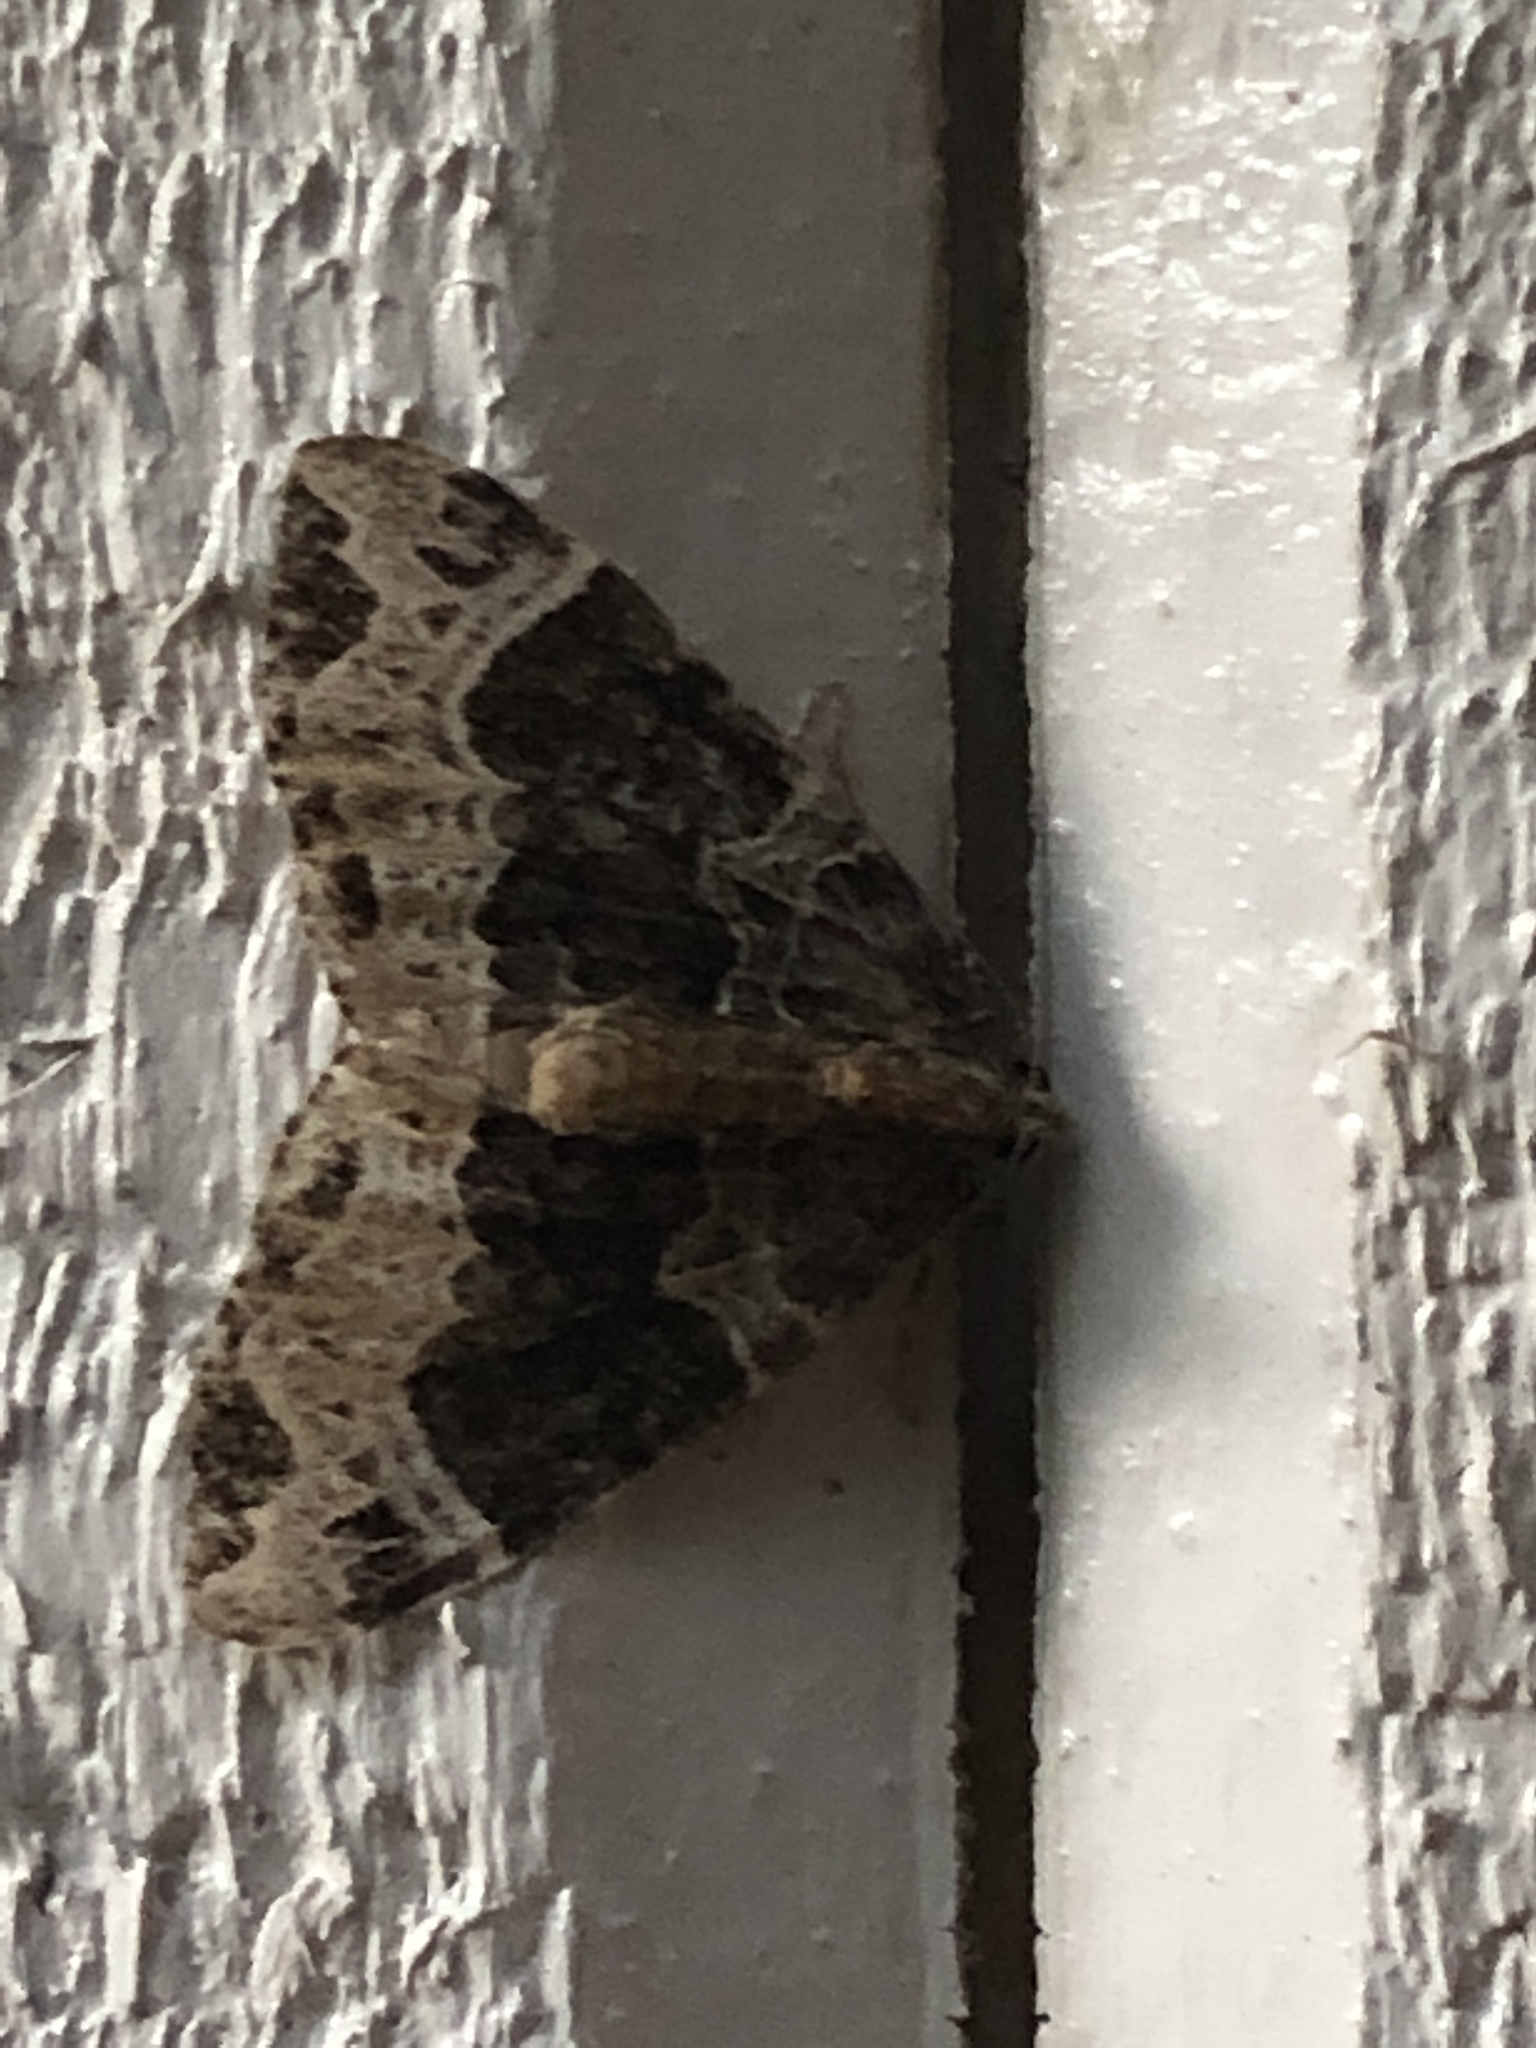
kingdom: Animalia
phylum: Arthropoda
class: Insecta
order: Lepidoptera
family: Geometridae
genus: Ecliptopera
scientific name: Ecliptopera silaceata
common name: Small phoenix
